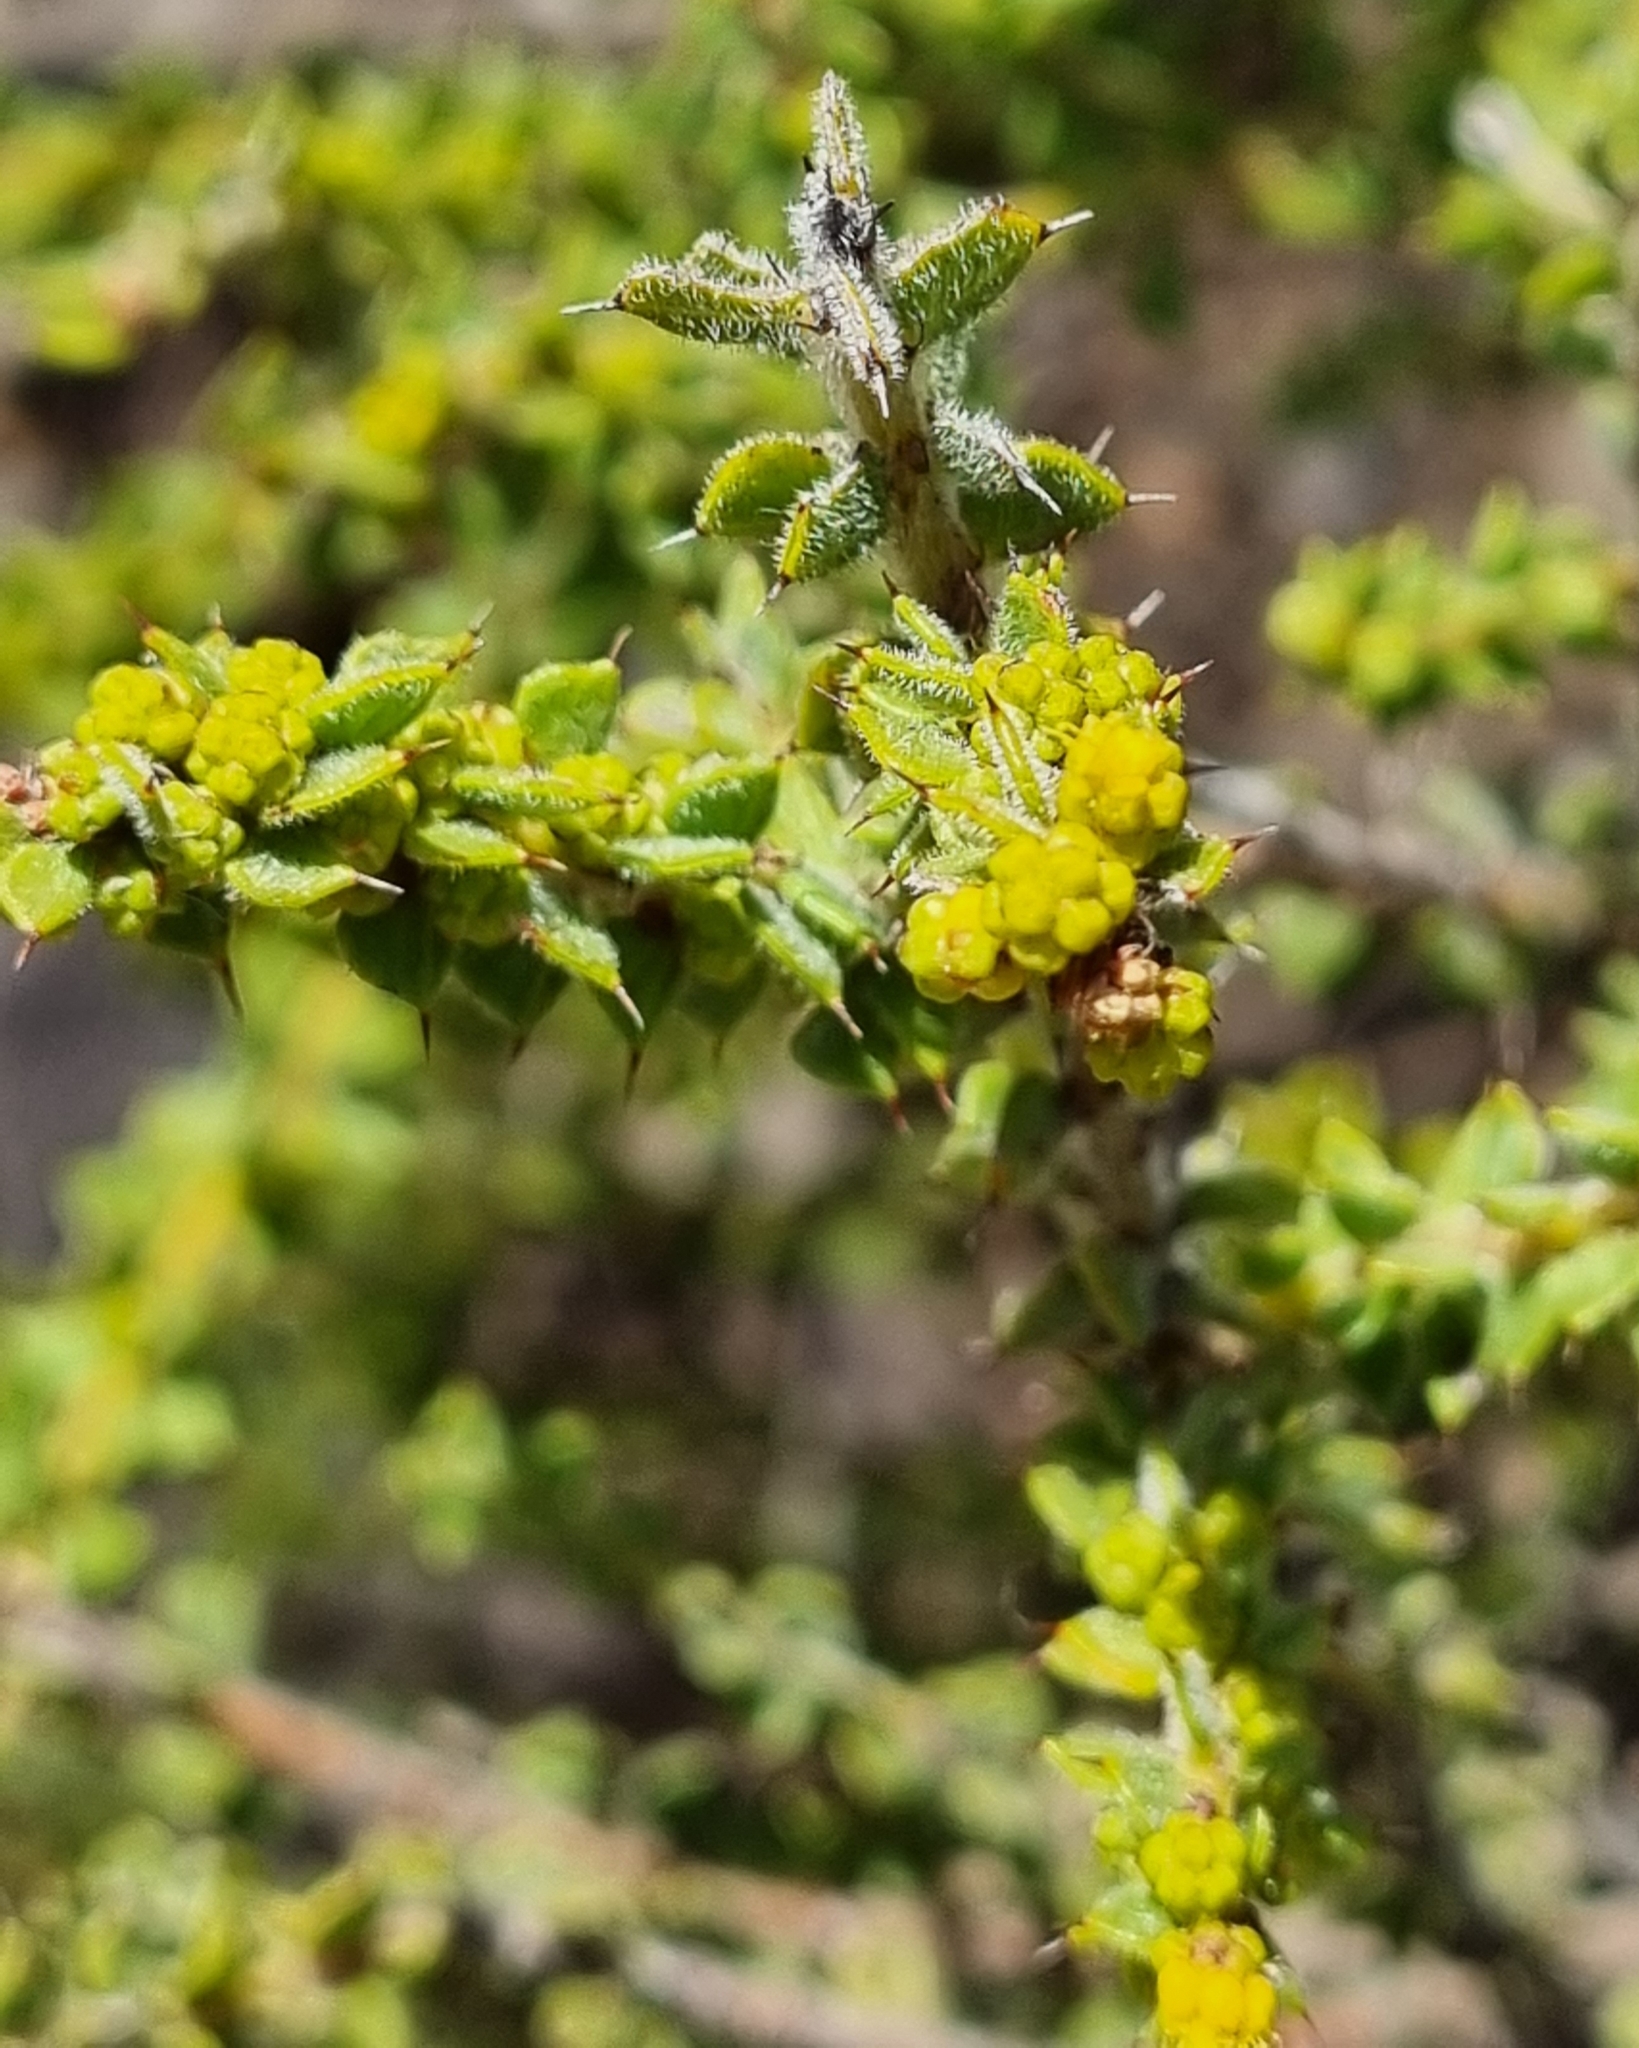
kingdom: Plantae
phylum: Tracheophyta
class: Magnoliopsida
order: Fabales
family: Fabaceae
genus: Acacia
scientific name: Acacia pravifolia
